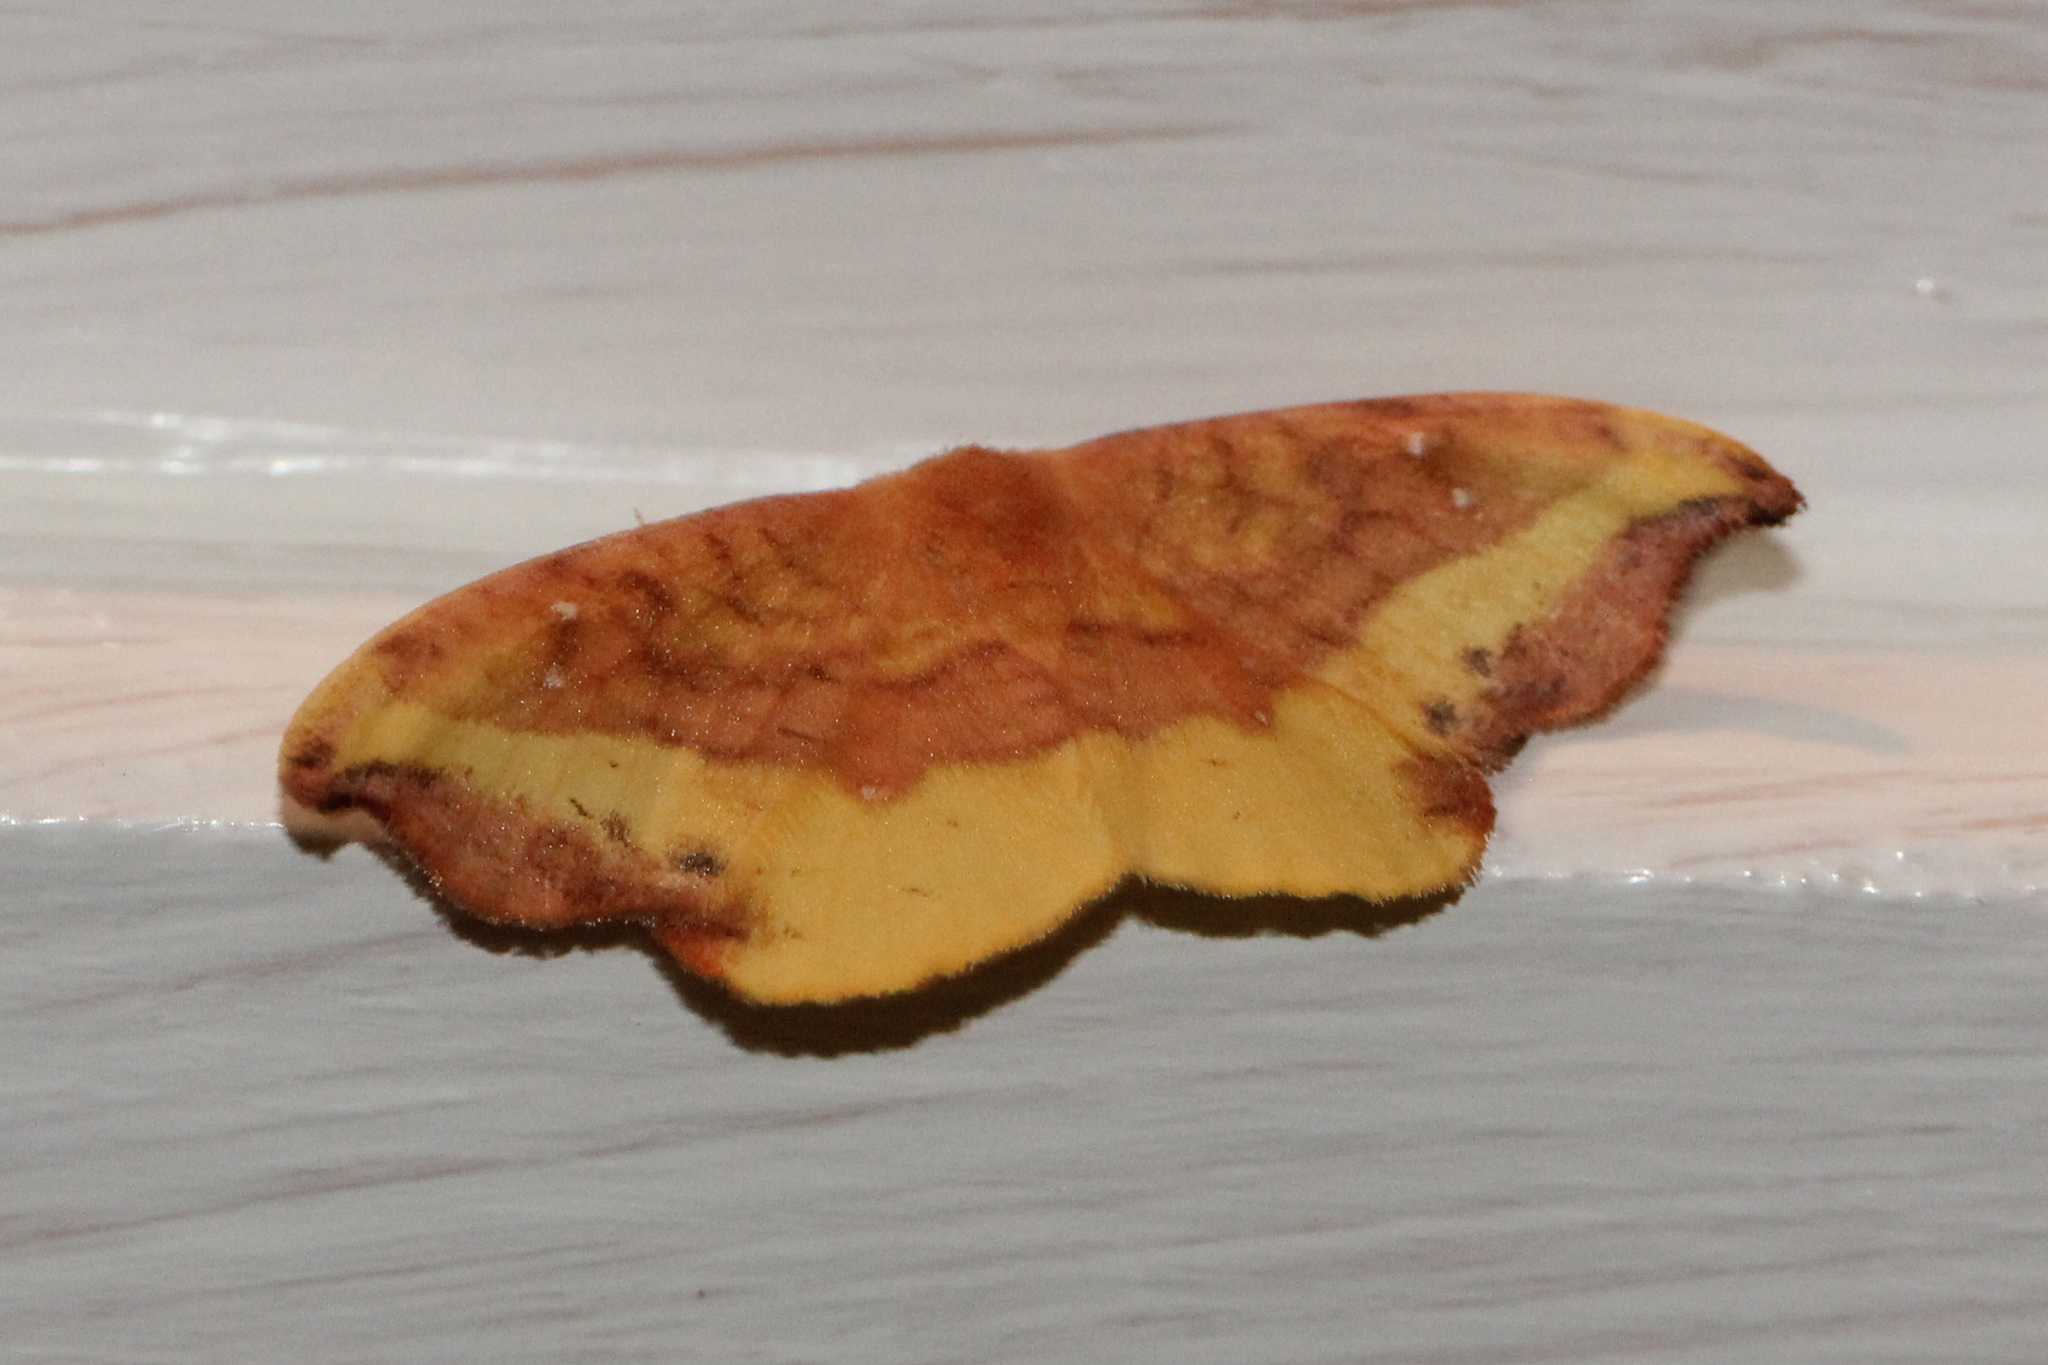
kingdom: Animalia
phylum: Arthropoda
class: Insecta
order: Lepidoptera
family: Drepanidae
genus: Oreta
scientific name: Oreta rosea
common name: Rose hooktip
